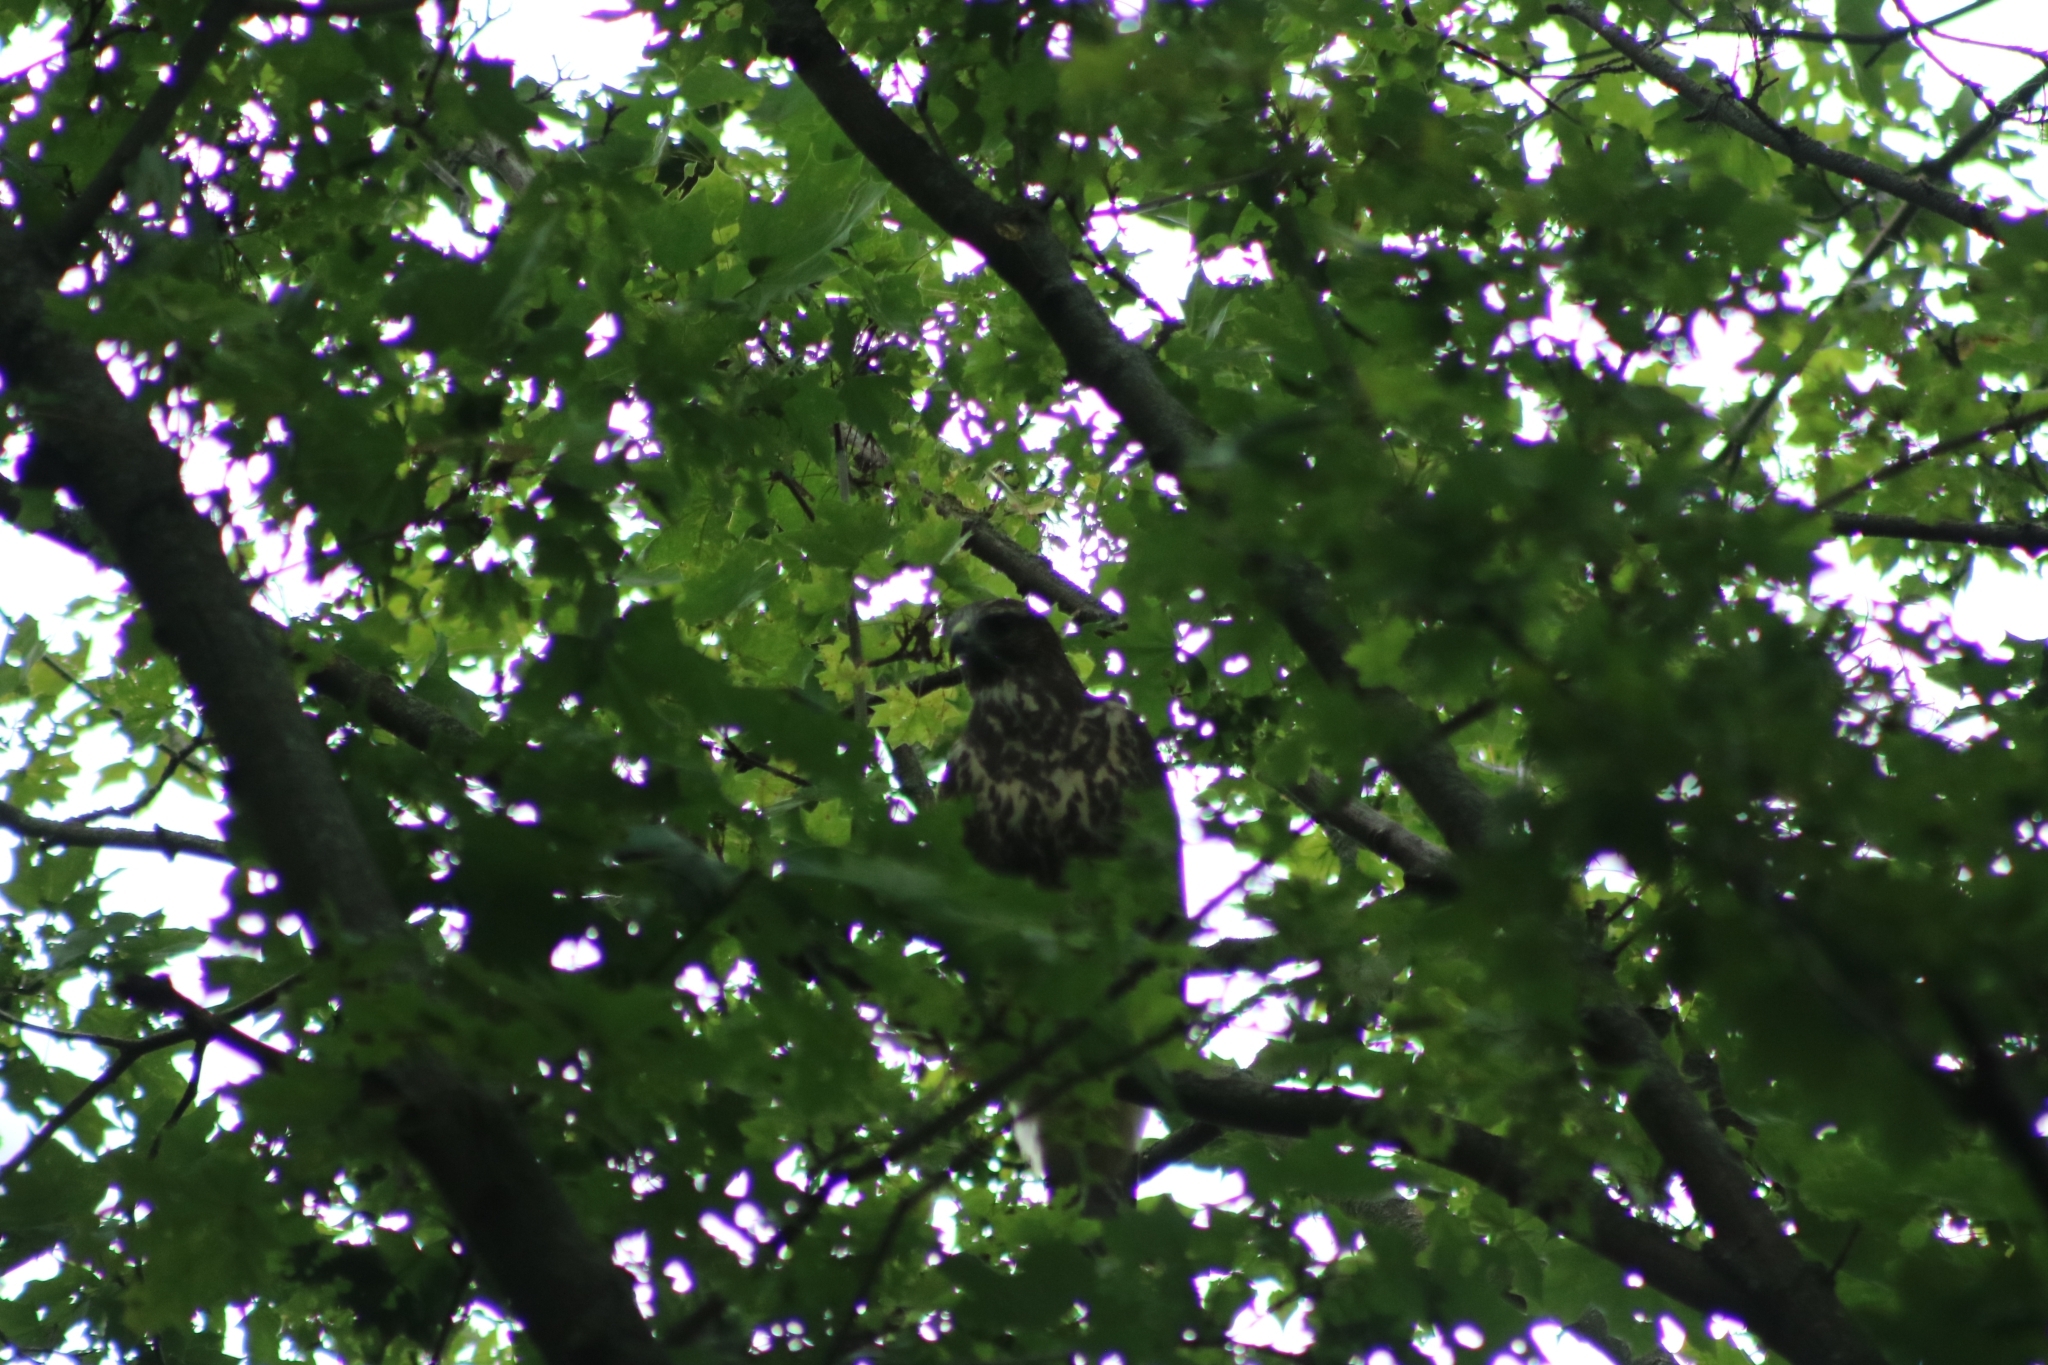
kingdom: Animalia
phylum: Chordata
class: Aves
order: Accipitriformes
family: Accipitridae
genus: Buteo
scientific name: Buteo buteo
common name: Common buzzard
